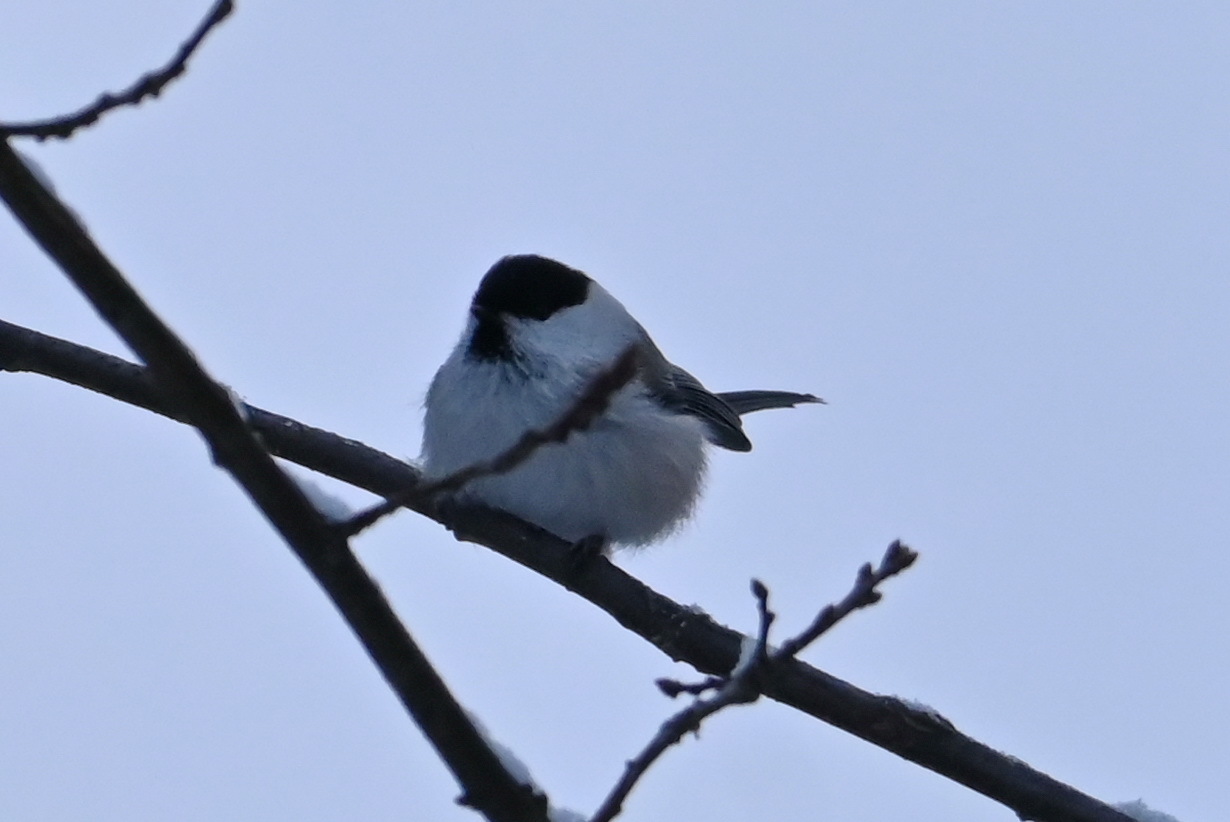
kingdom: Animalia
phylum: Chordata
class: Aves
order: Passeriformes
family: Paridae
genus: Poecile
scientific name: Poecile montanus
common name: Willow tit
